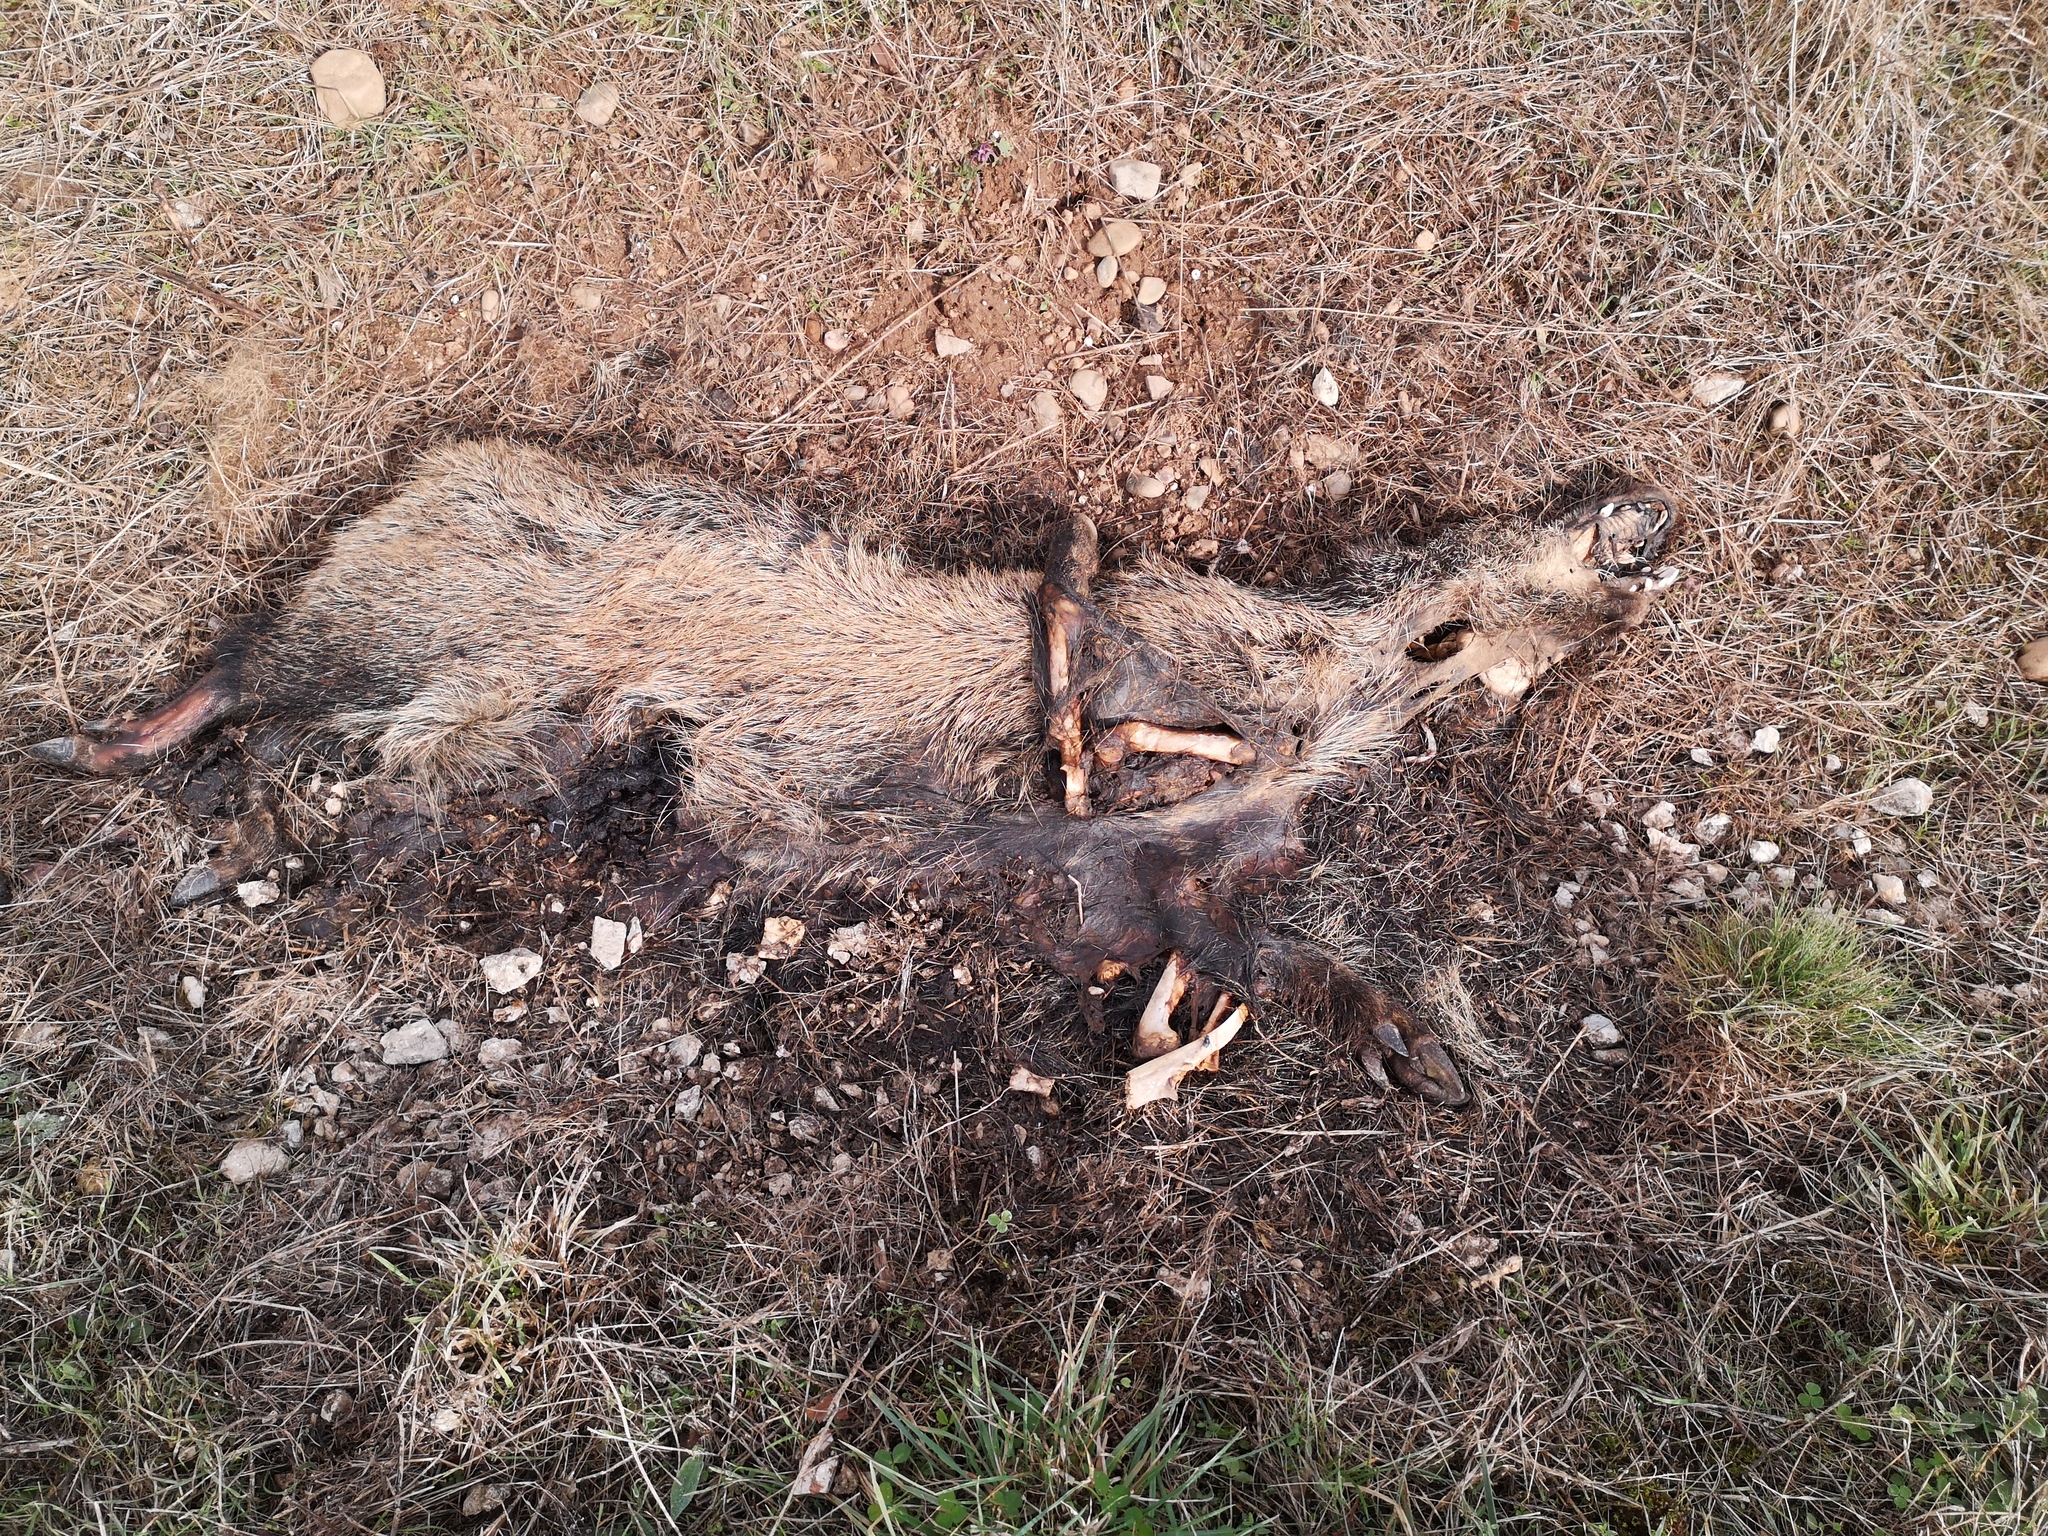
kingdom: Animalia
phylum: Chordata
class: Mammalia
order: Artiodactyla
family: Suidae
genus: Sus
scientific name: Sus scrofa
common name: Wild boar
